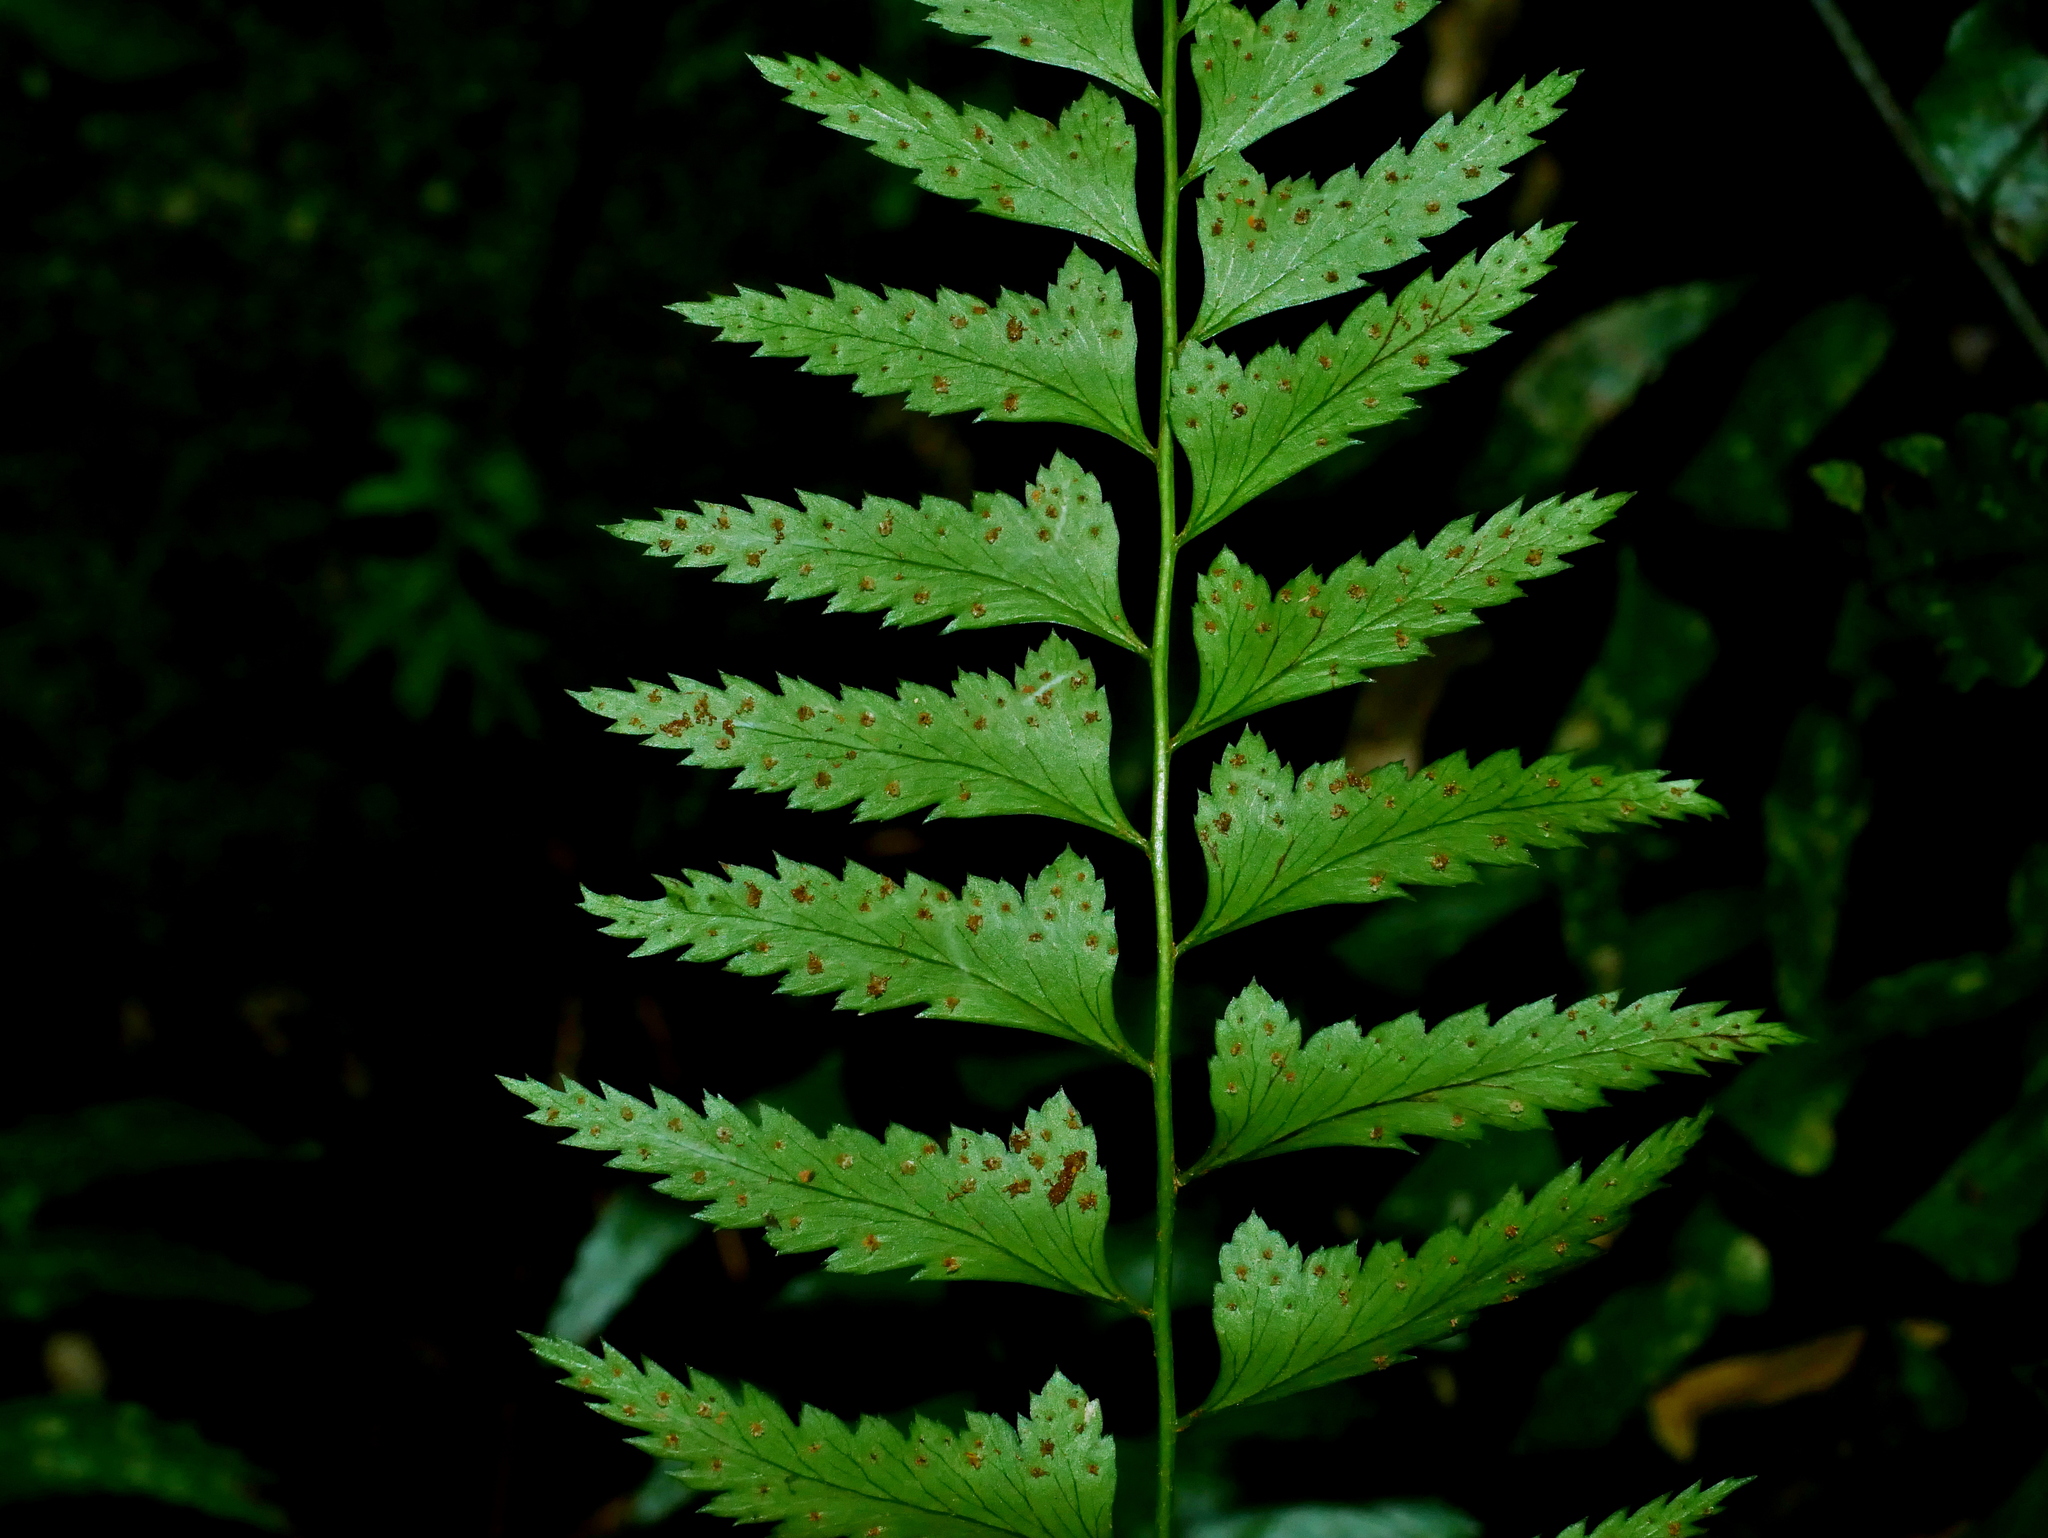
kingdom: Plantae
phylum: Tracheophyta
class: Polypodiopsida
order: Polypodiales
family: Dryopteridaceae
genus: Polystichum
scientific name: Polystichum formosanum
